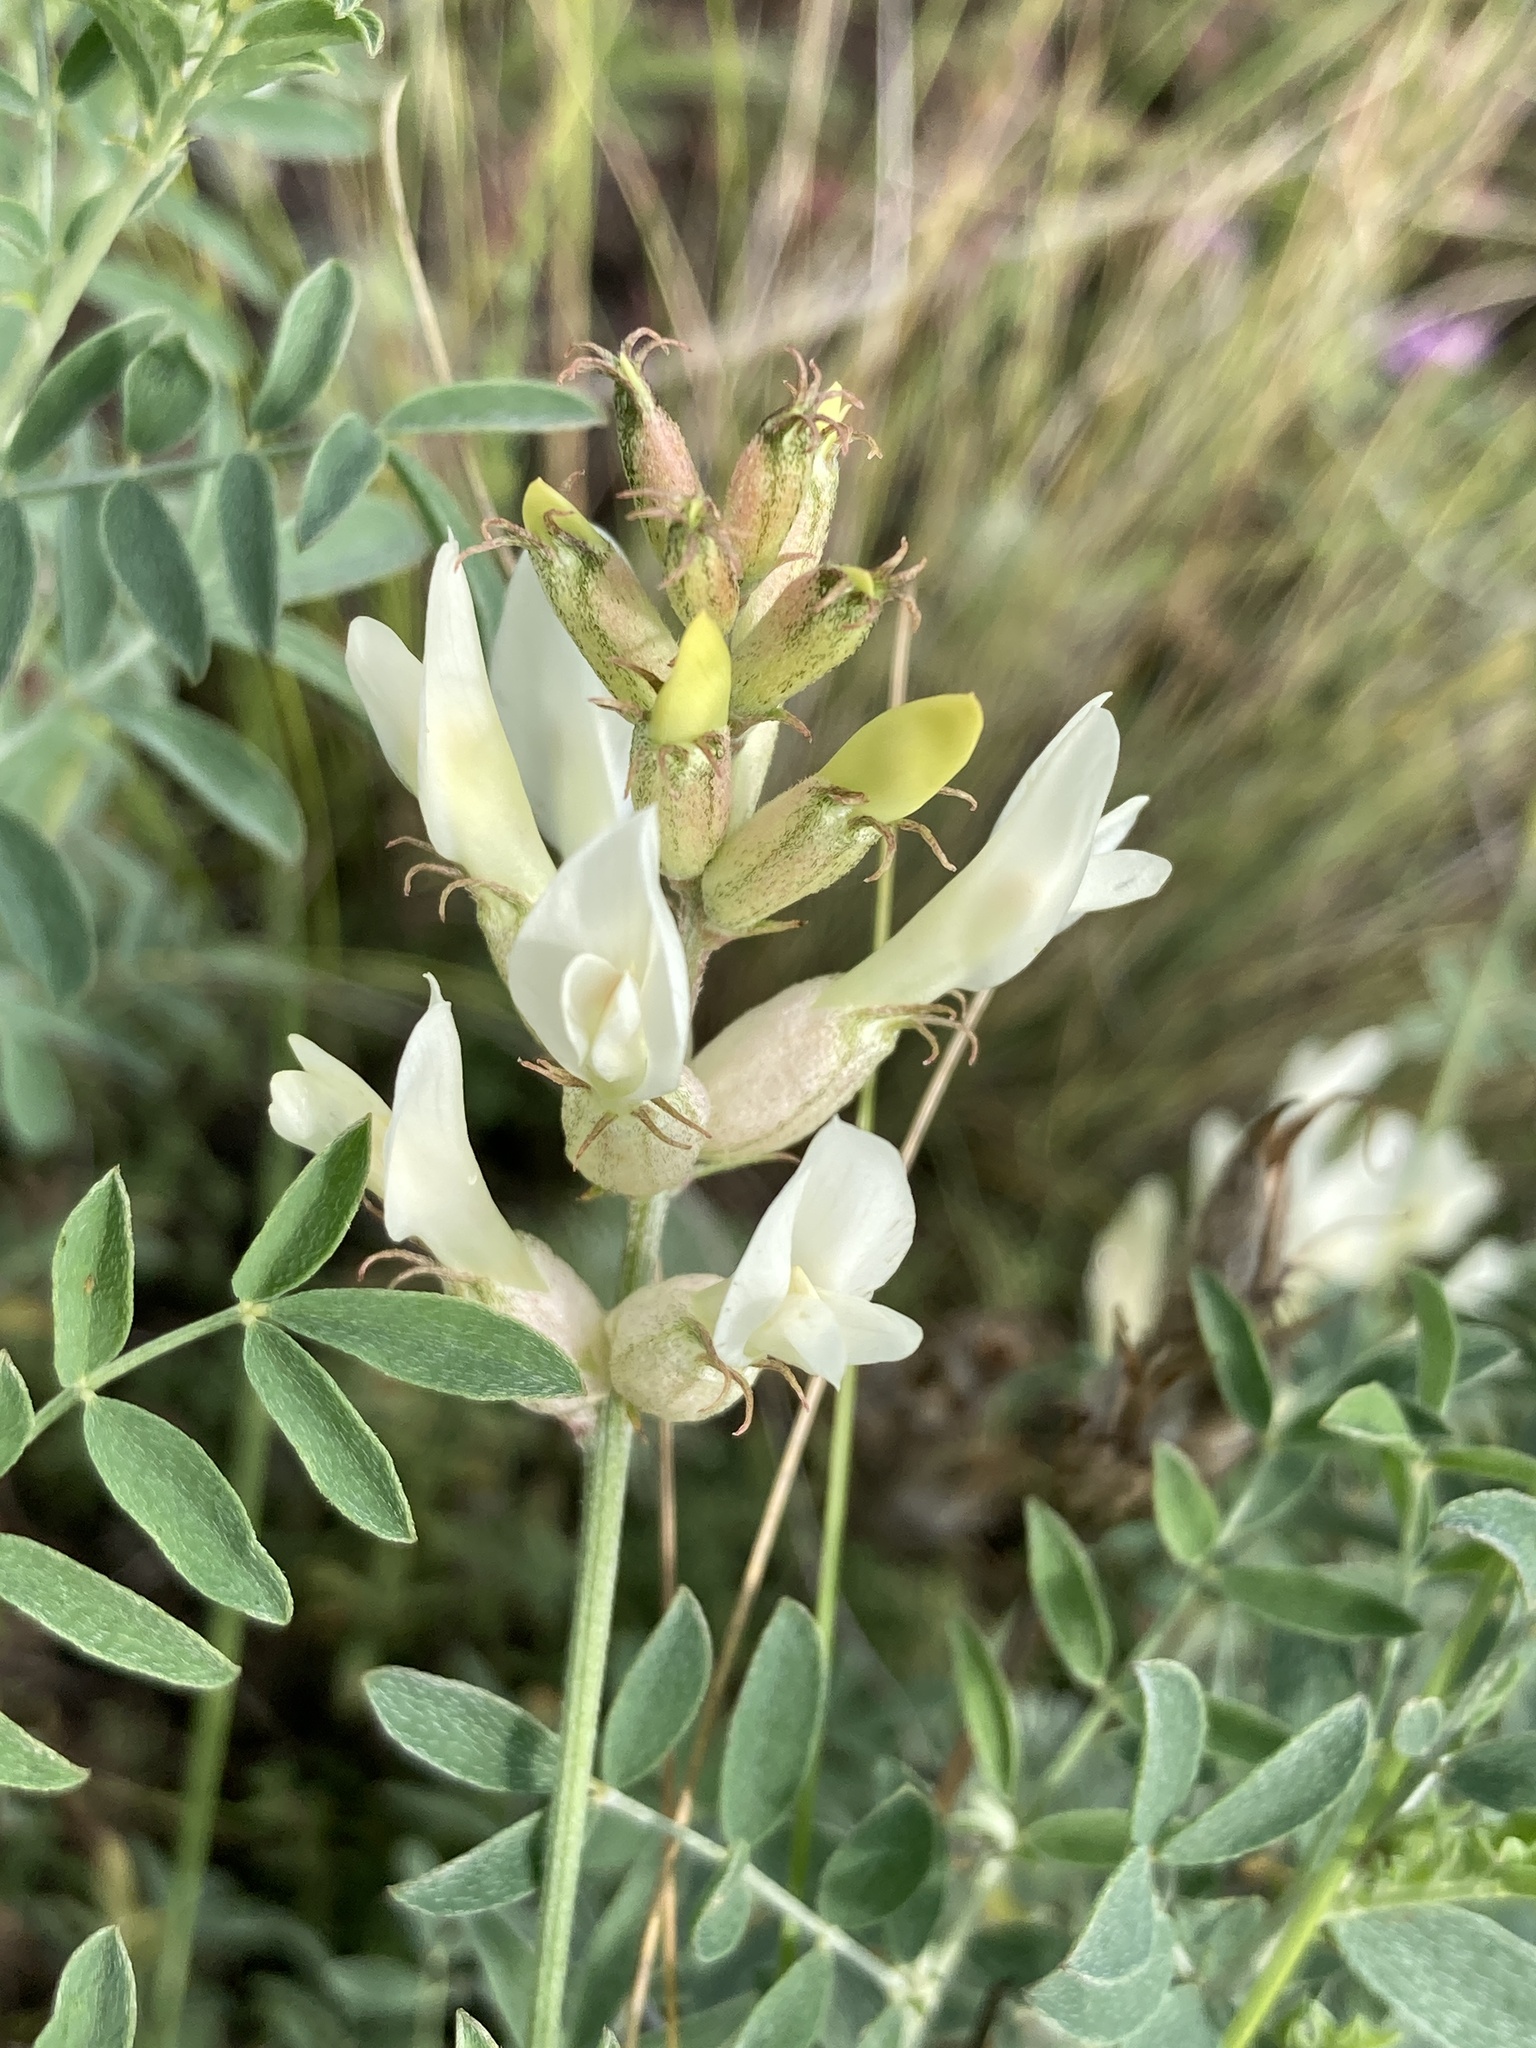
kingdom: Plantae
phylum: Tracheophyta
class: Magnoliopsida
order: Fabales
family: Fabaceae
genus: Astragalus
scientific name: Astragalus albicaulis
